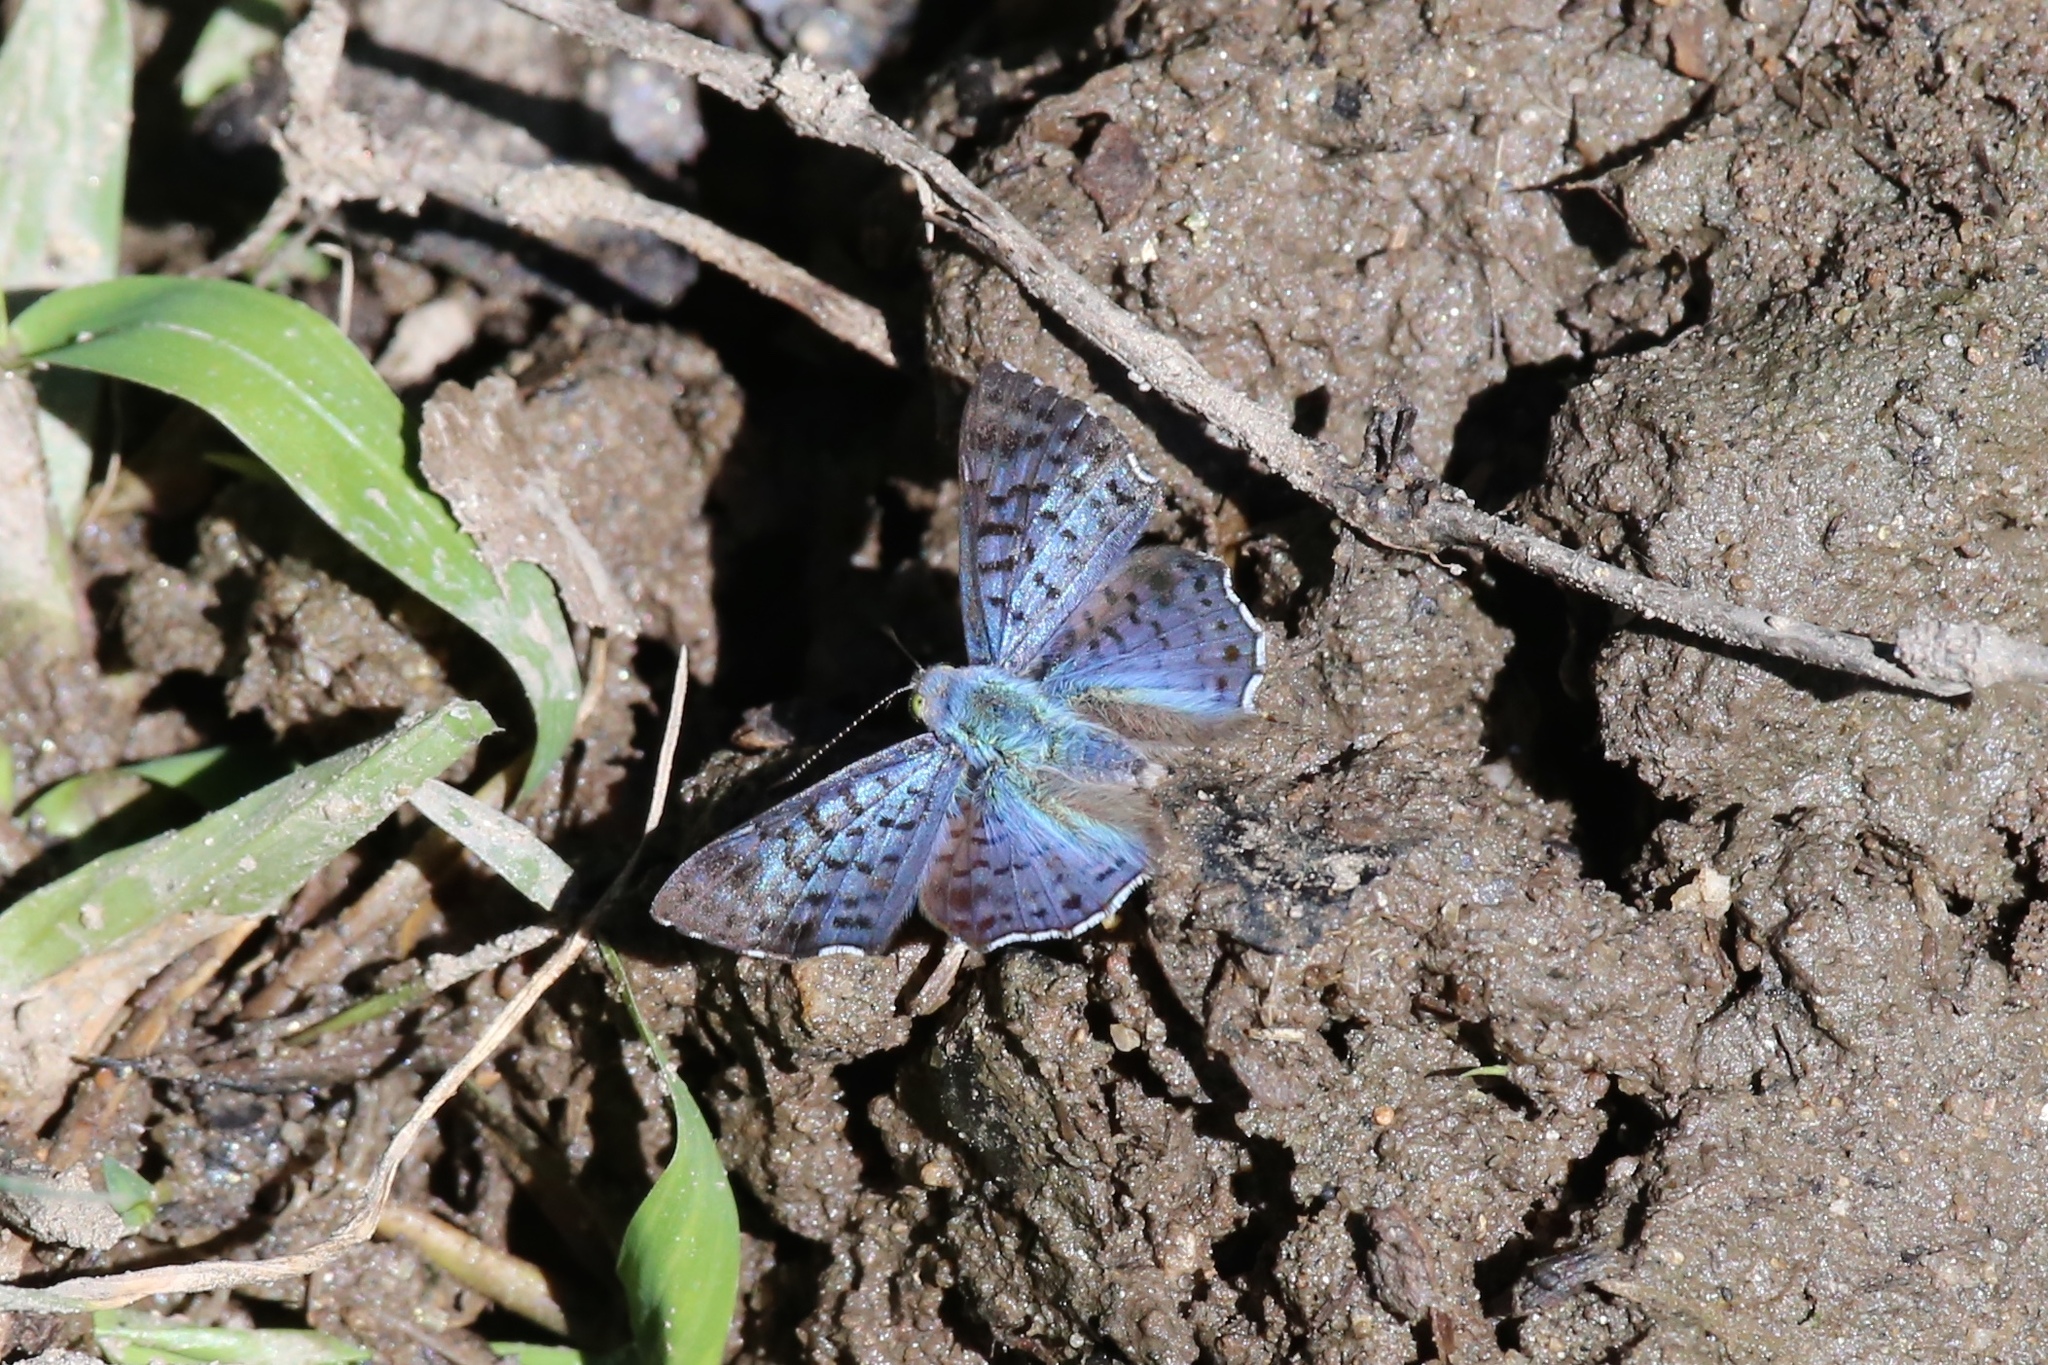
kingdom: Animalia
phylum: Arthropoda
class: Insecta
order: Lepidoptera
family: Riodinidae
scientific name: Riodinidae
